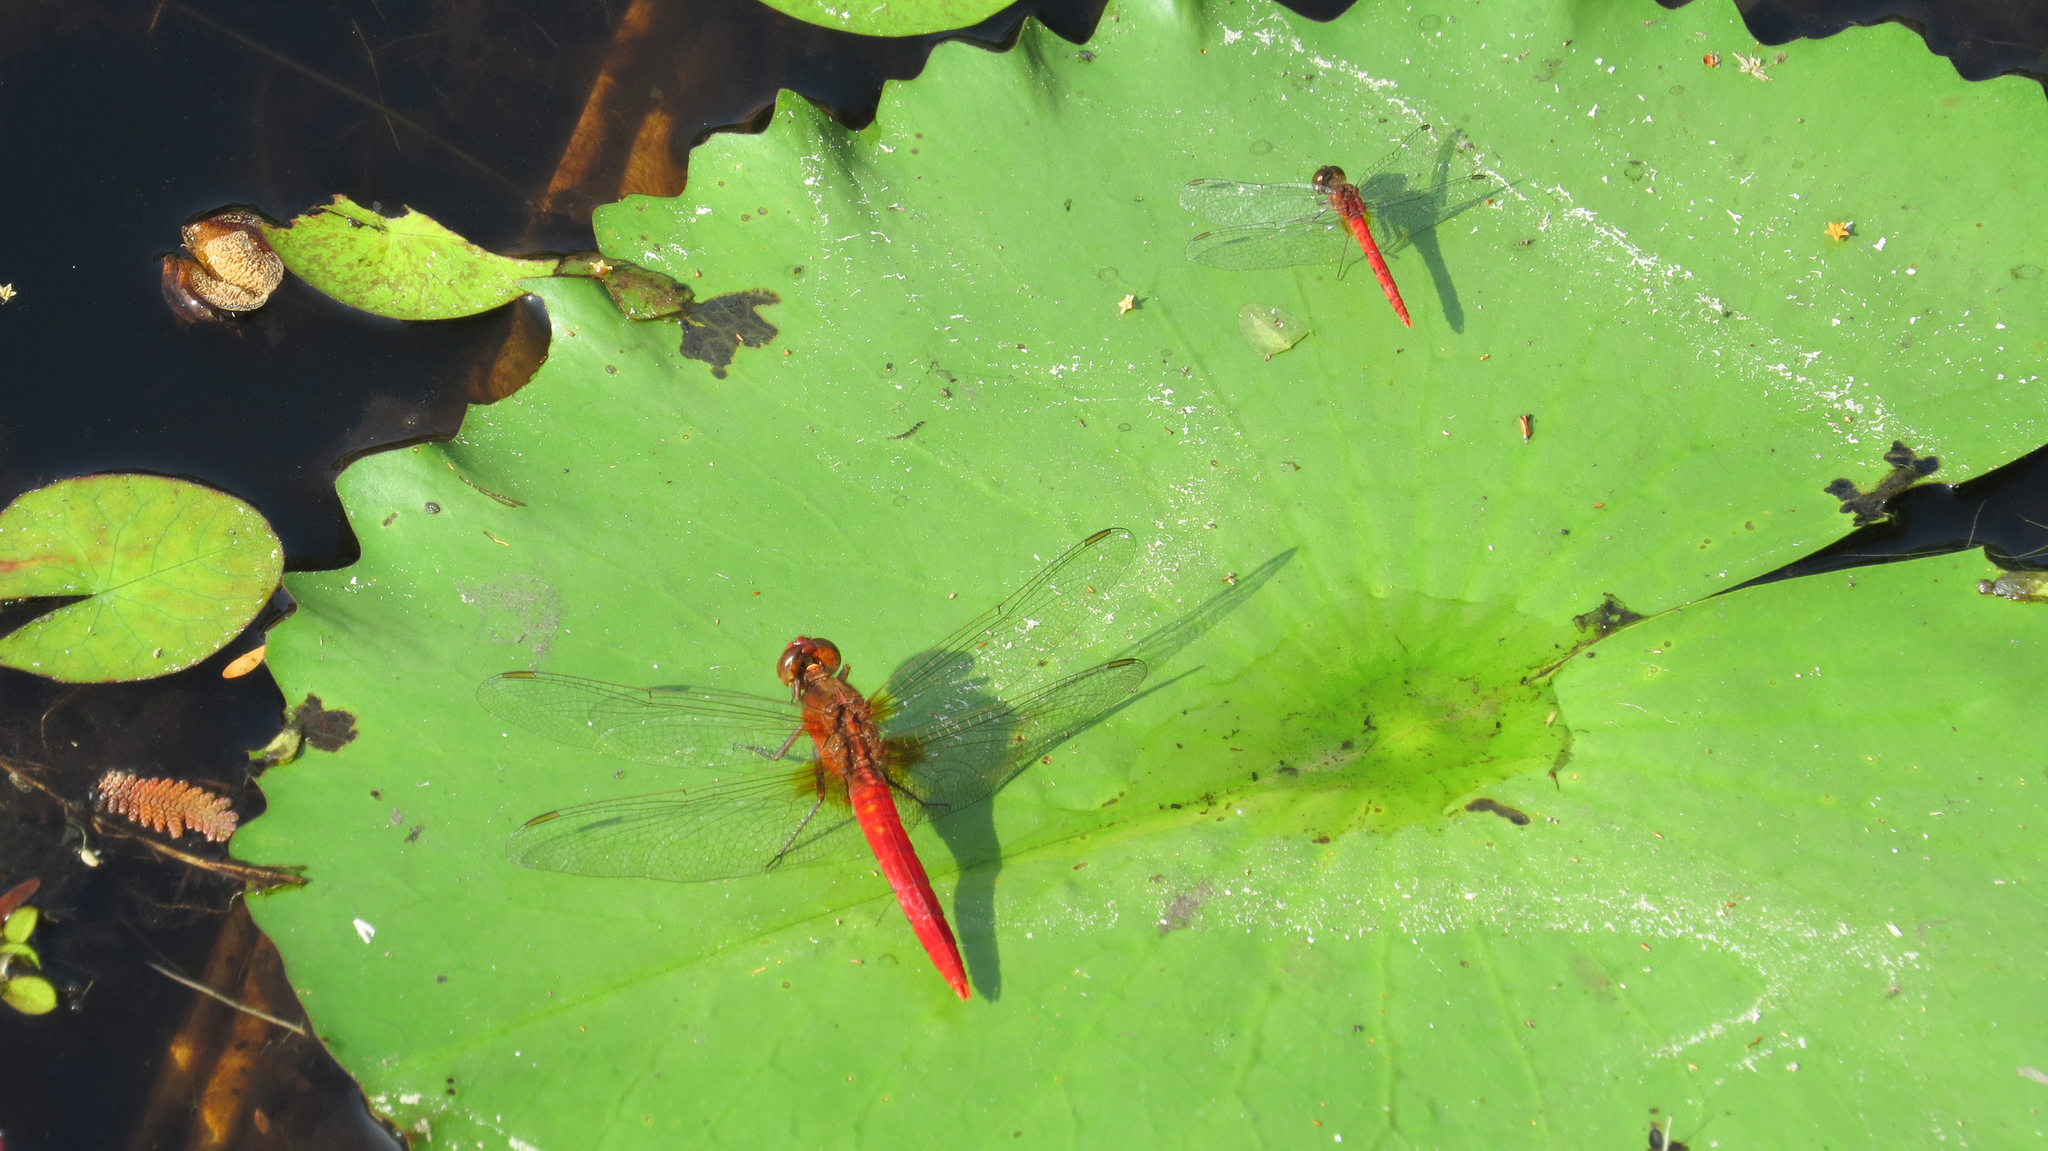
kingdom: Animalia
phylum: Arthropoda
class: Insecta
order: Odonata
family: Libellulidae
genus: Nannodiplax
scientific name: Nannodiplax rubra
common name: Pygmy percher
